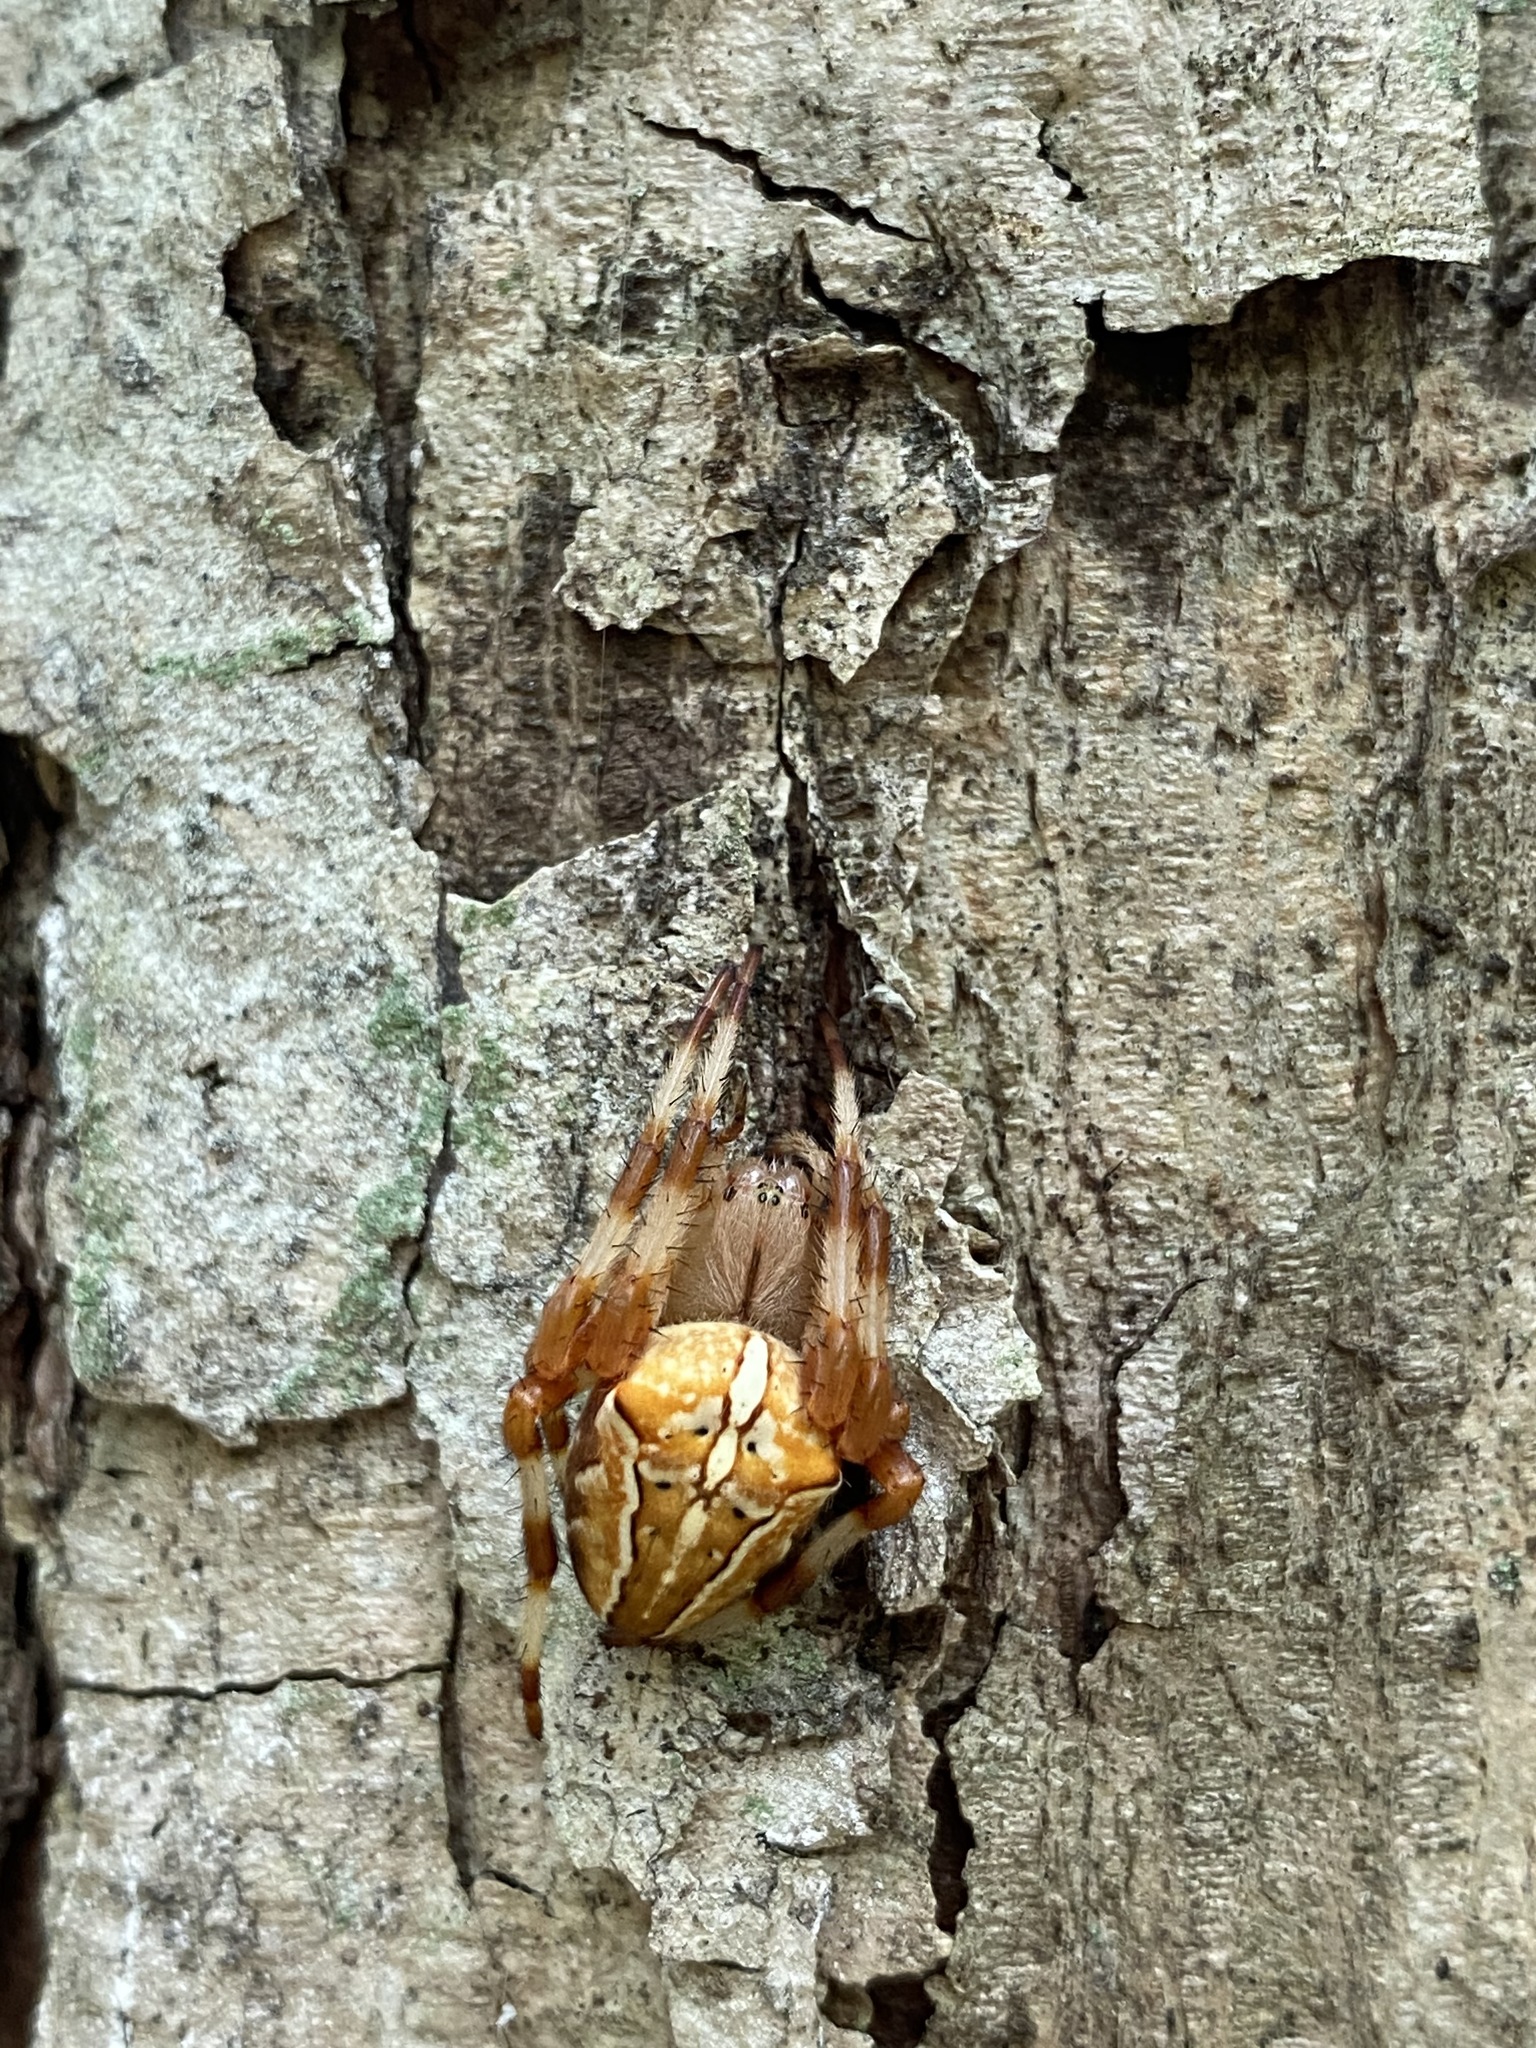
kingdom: Animalia
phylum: Arthropoda
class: Arachnida
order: Araneae
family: Araneidae
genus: Araneus
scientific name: Araneus ishisawai
